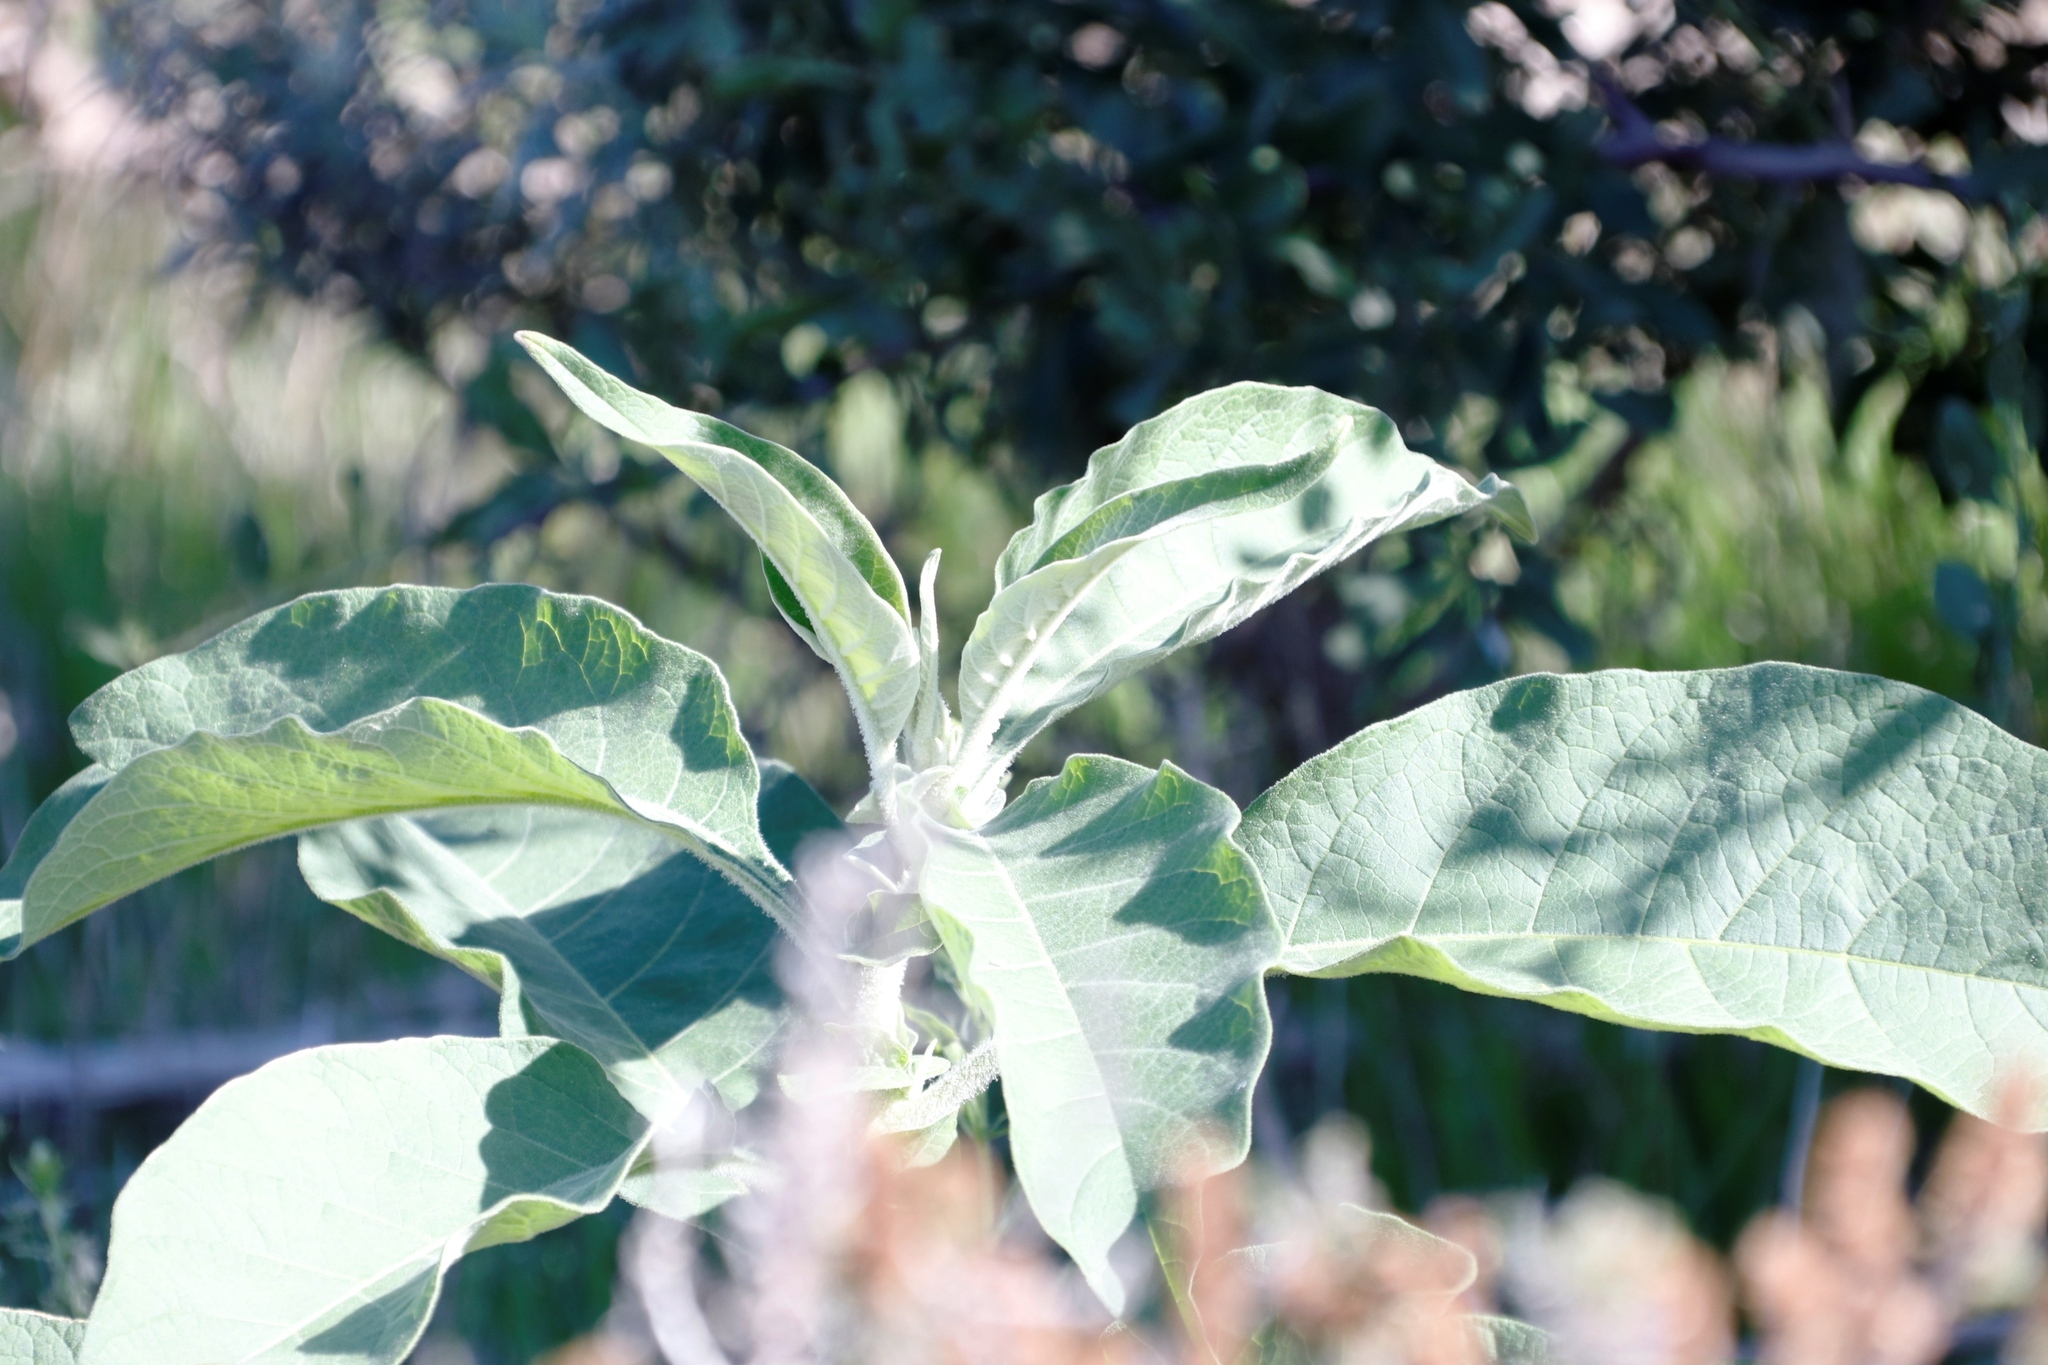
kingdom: Plantae
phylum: Tracheophyta
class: Magnoliopsida
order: Solanales
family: Solanaceae
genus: Solanum
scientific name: Solanum mauritianum
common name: Earleaf nightshade
